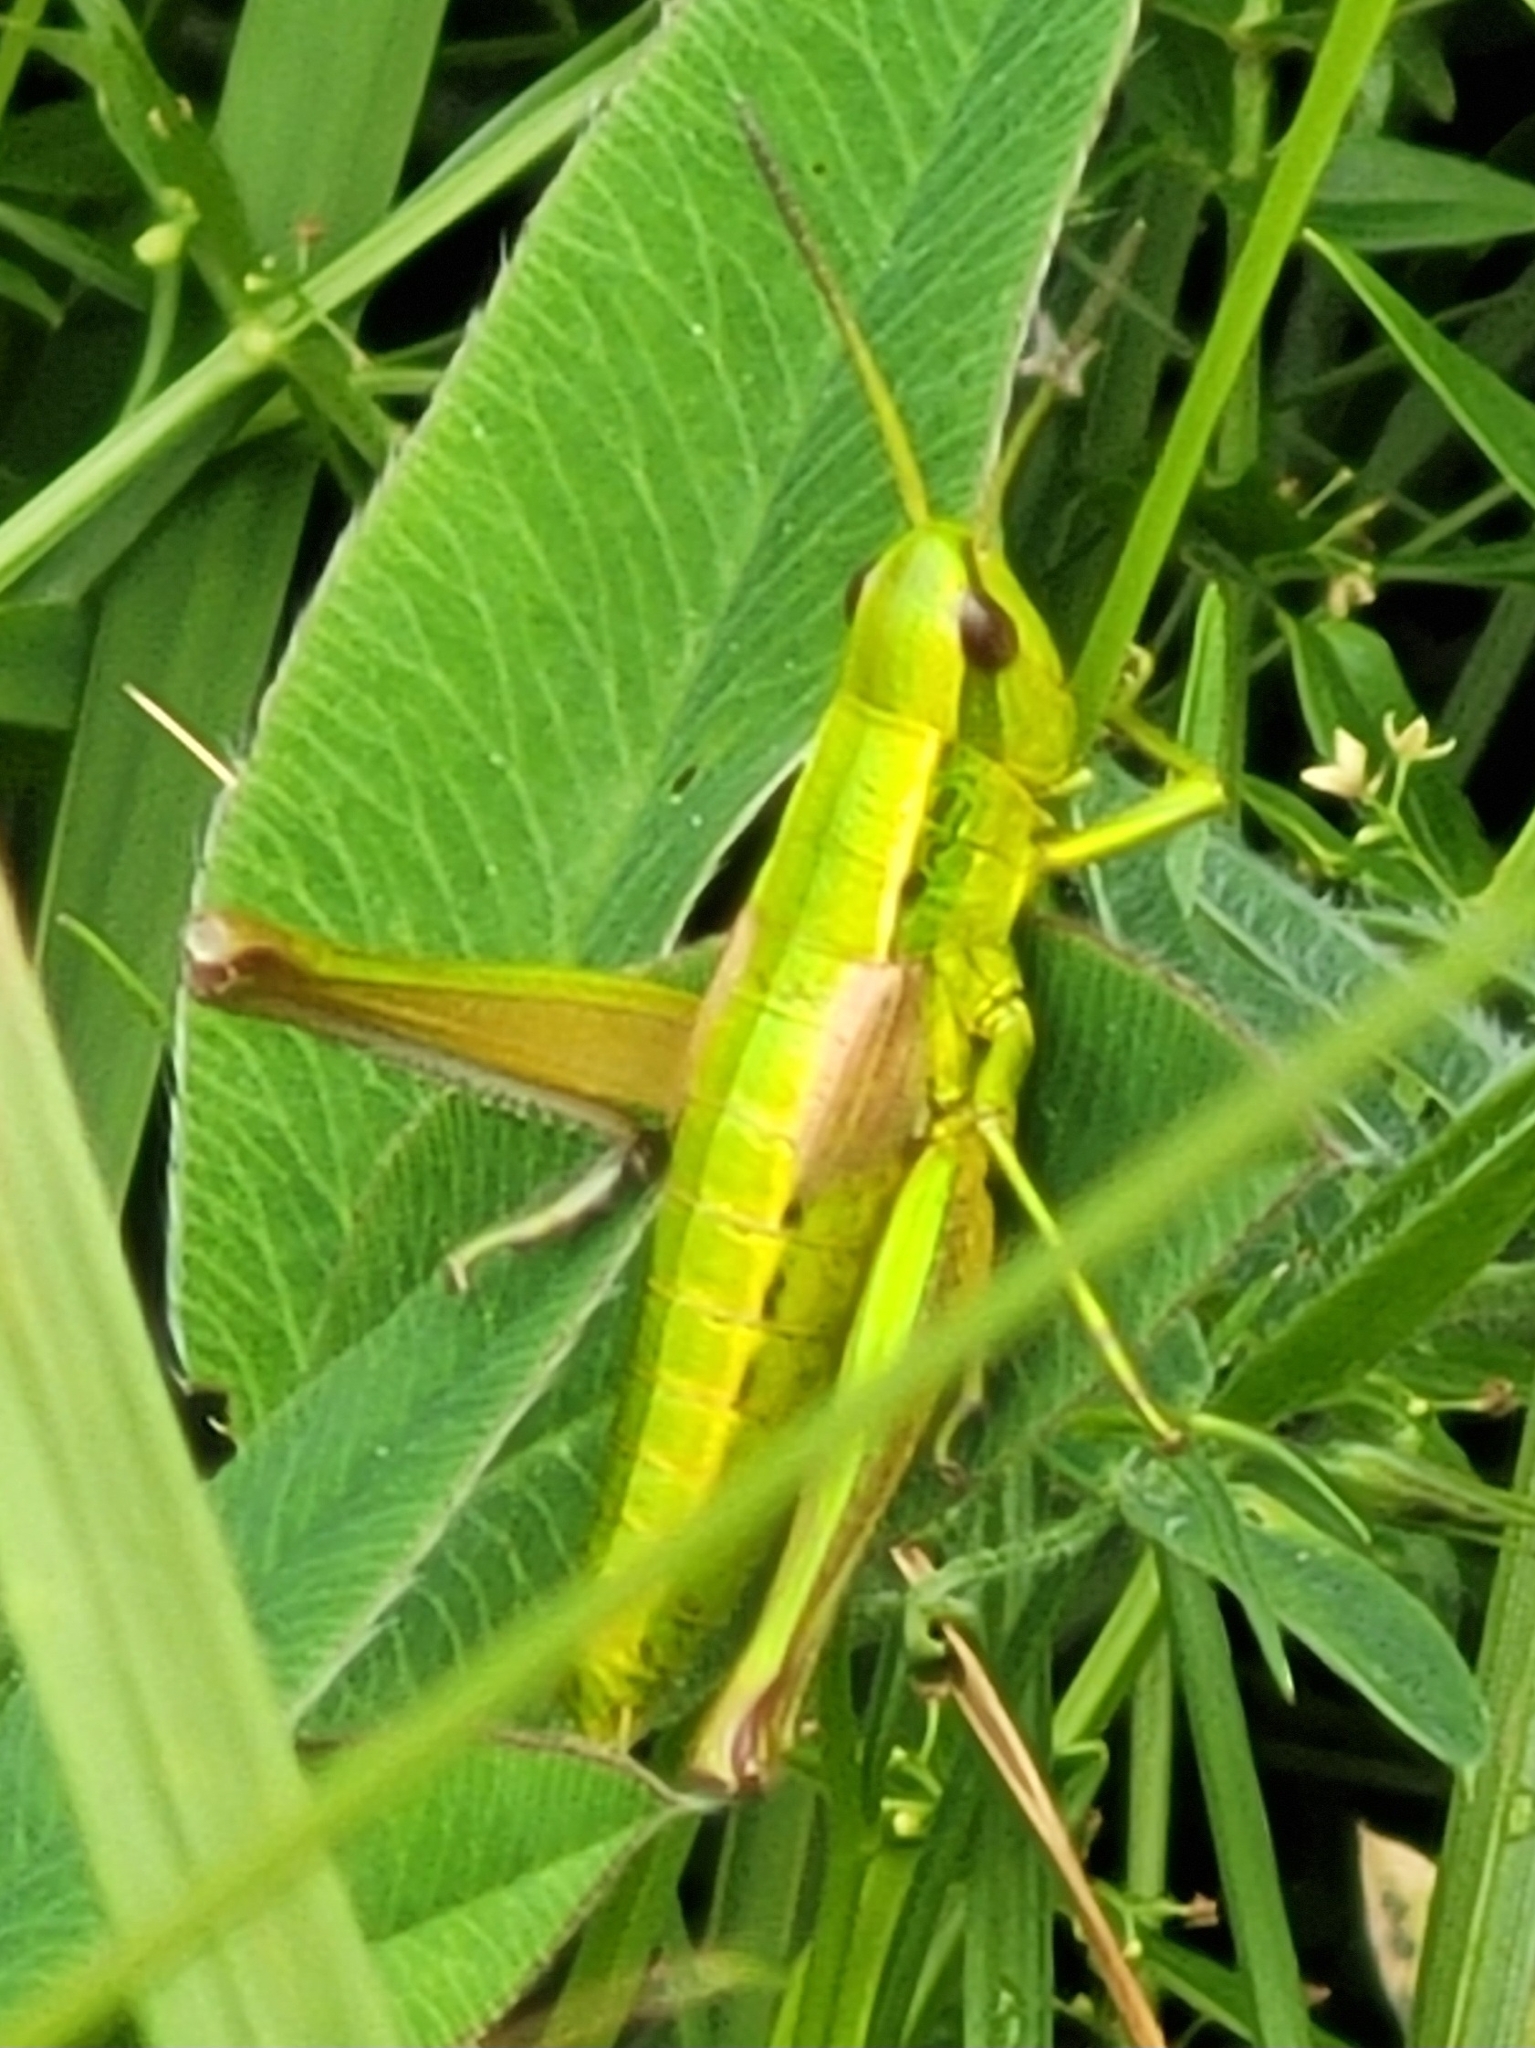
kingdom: Animalia
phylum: Arthropoda
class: Insecta
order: Orthoptera
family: Acrididae
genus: Euthystira
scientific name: Euthystira brachyptera
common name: Small gold grasshopper
